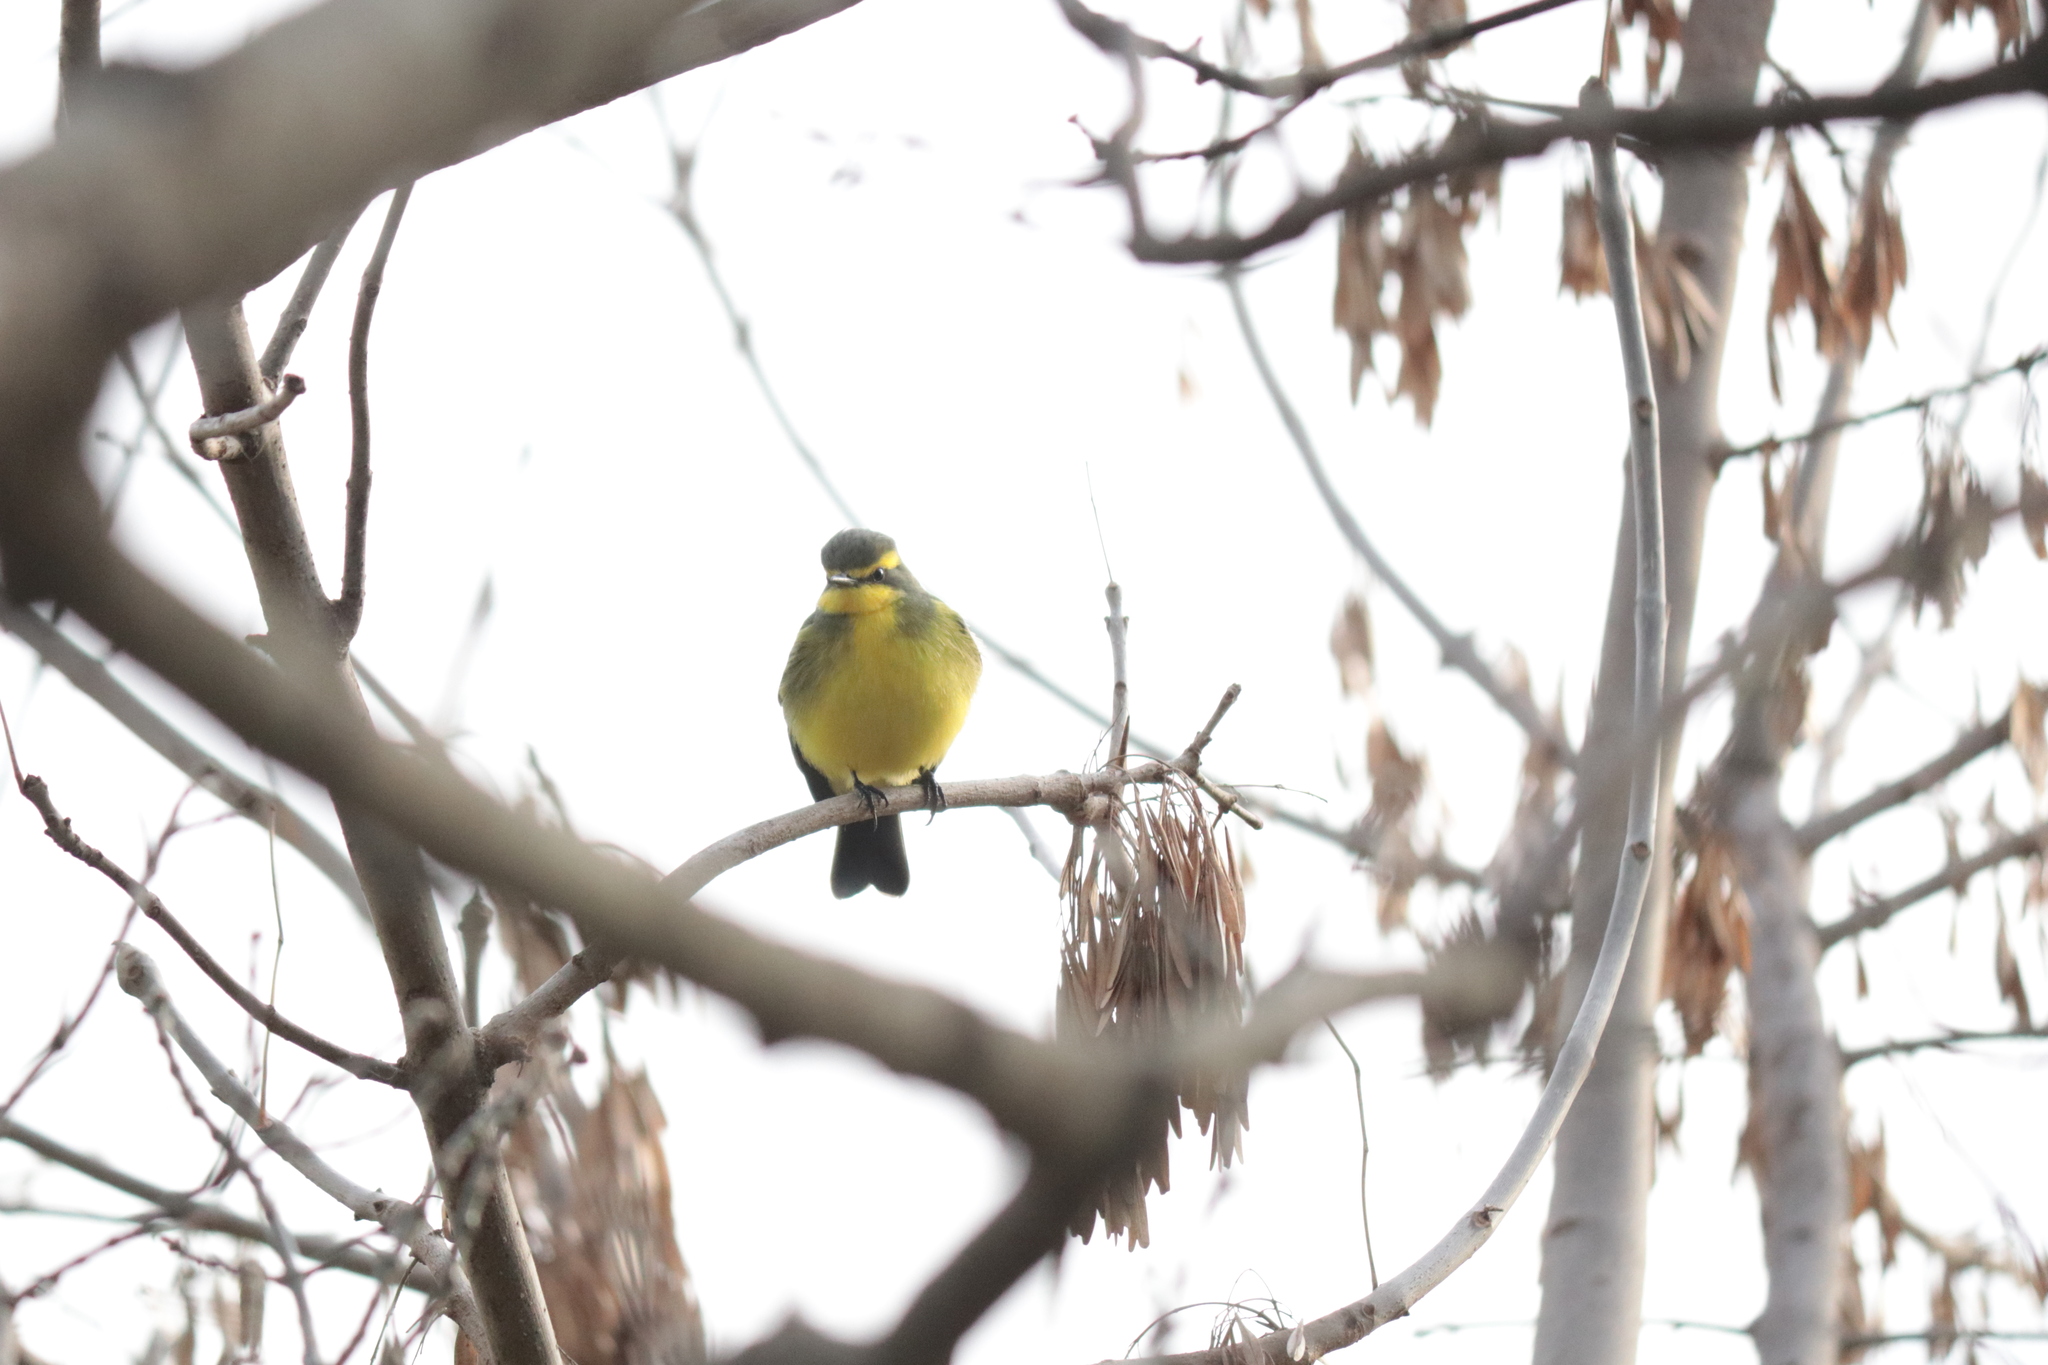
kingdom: Animalia
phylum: Chordata
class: Aves
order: Passeriformes
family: Tyrannidae
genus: Satrapa
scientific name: Satrapa icterophrys
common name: Yellow-browed tyrant
